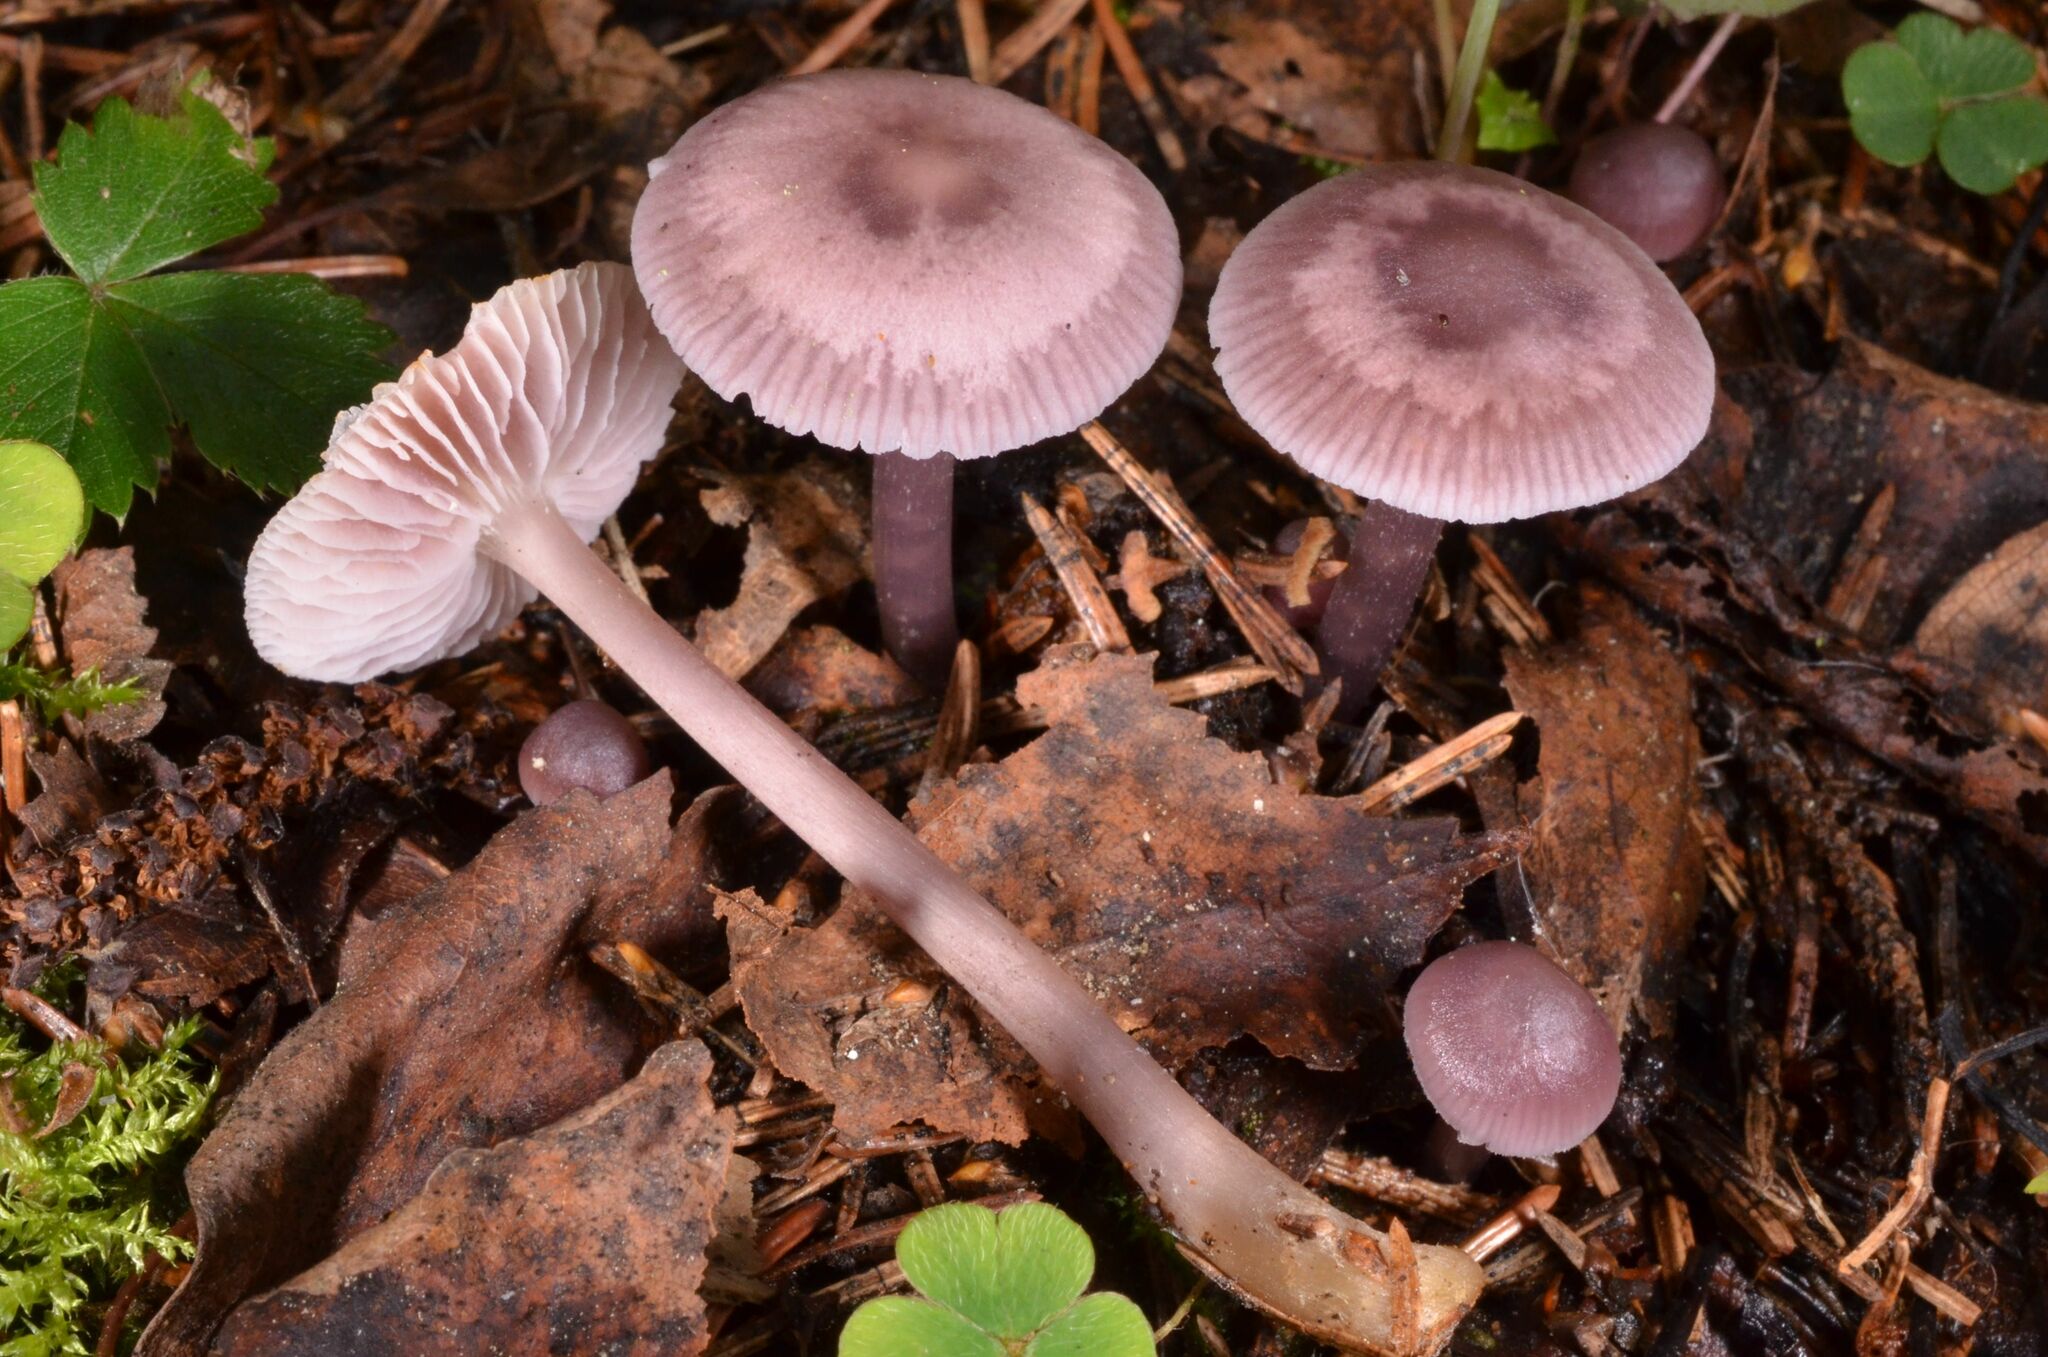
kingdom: Fungi
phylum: Basidiomycota
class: Agaricomycetes
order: Agaricales
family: Mycenaceae
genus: Mycena
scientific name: Mycena pura
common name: Lilac bonnet
